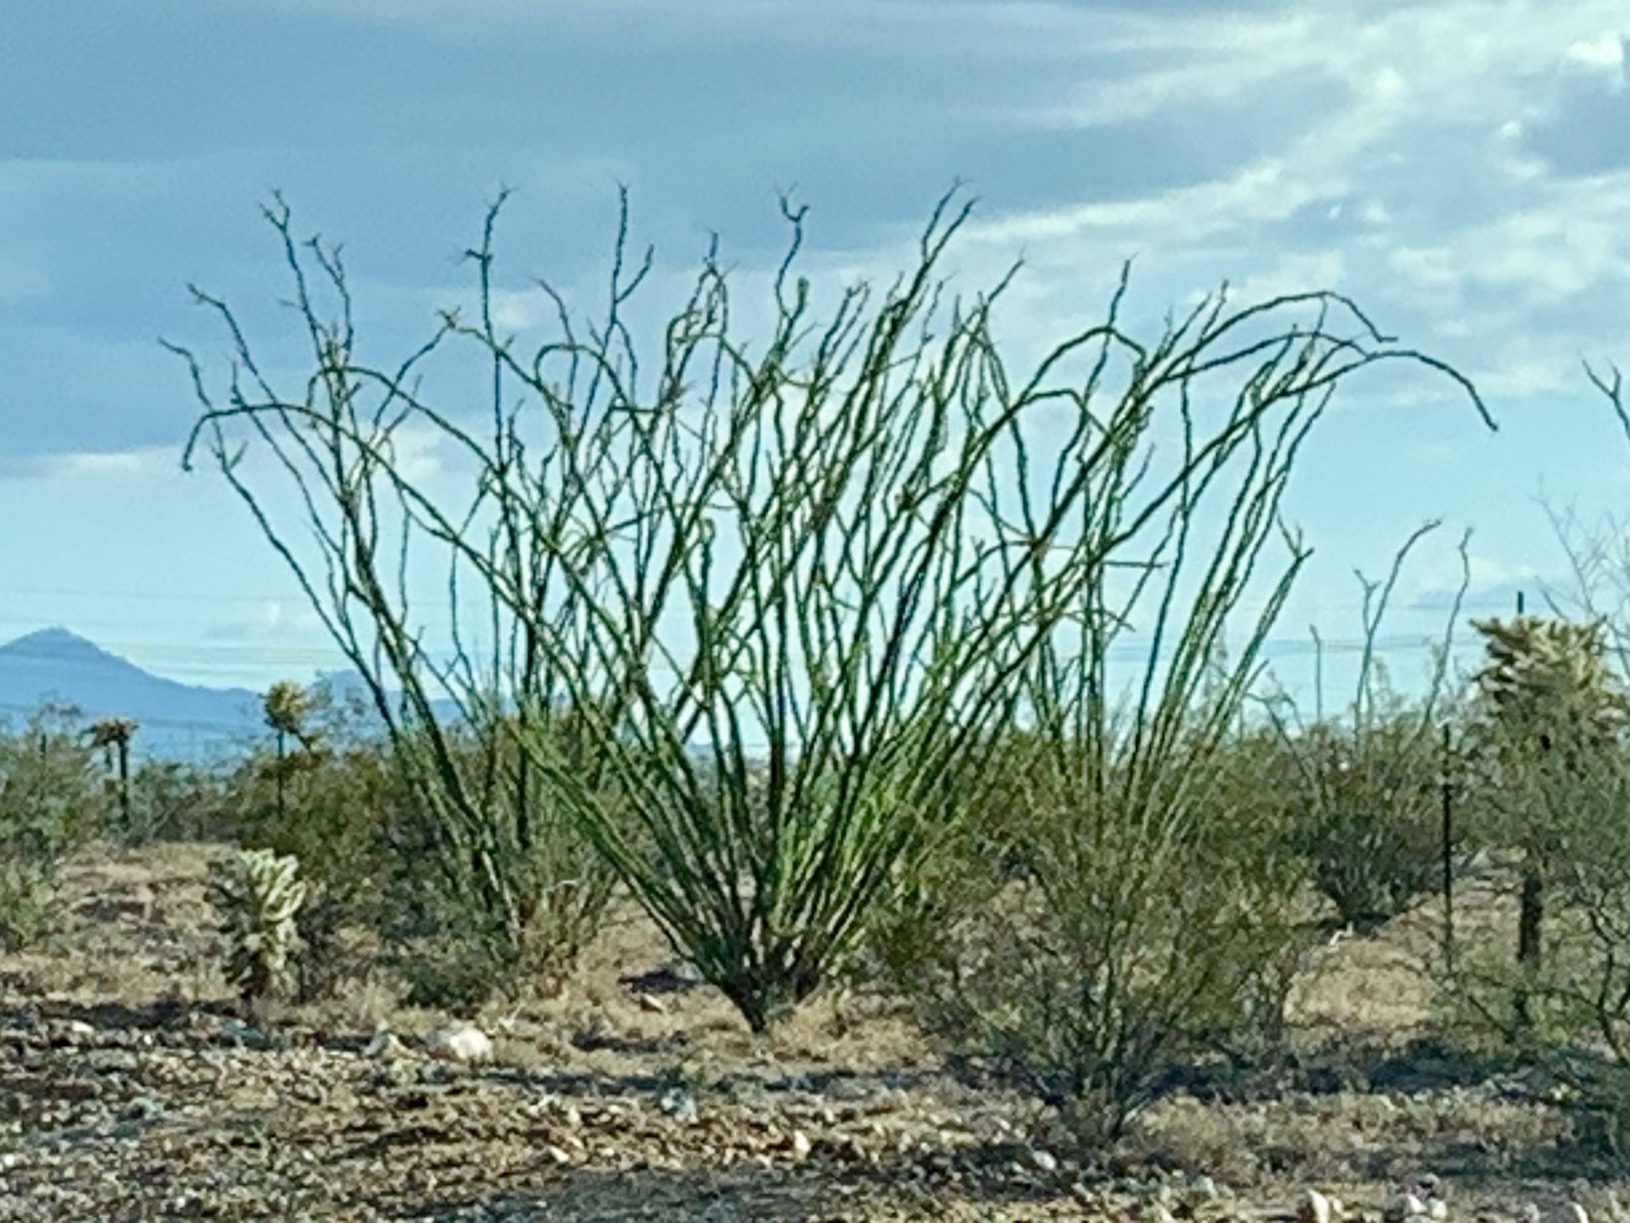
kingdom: Plantae
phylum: Tracheophyta
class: Magnoliopsida
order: Ericales
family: Fouquieriaceae
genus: Fouquieria
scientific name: Fouquieria splendens
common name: Vine-cactus
